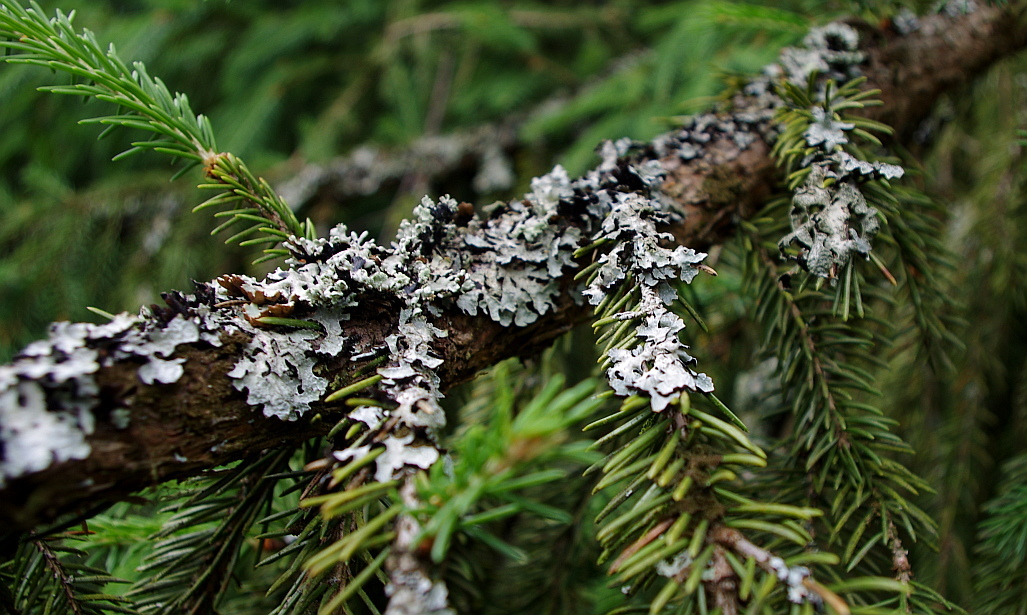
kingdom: Fungi
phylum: Ascomycota
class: Lecanoromycetes
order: Lecanorales
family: Parmeliaceae
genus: Parmelia
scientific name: Parmelia sulcata
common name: Netted shield lichen
